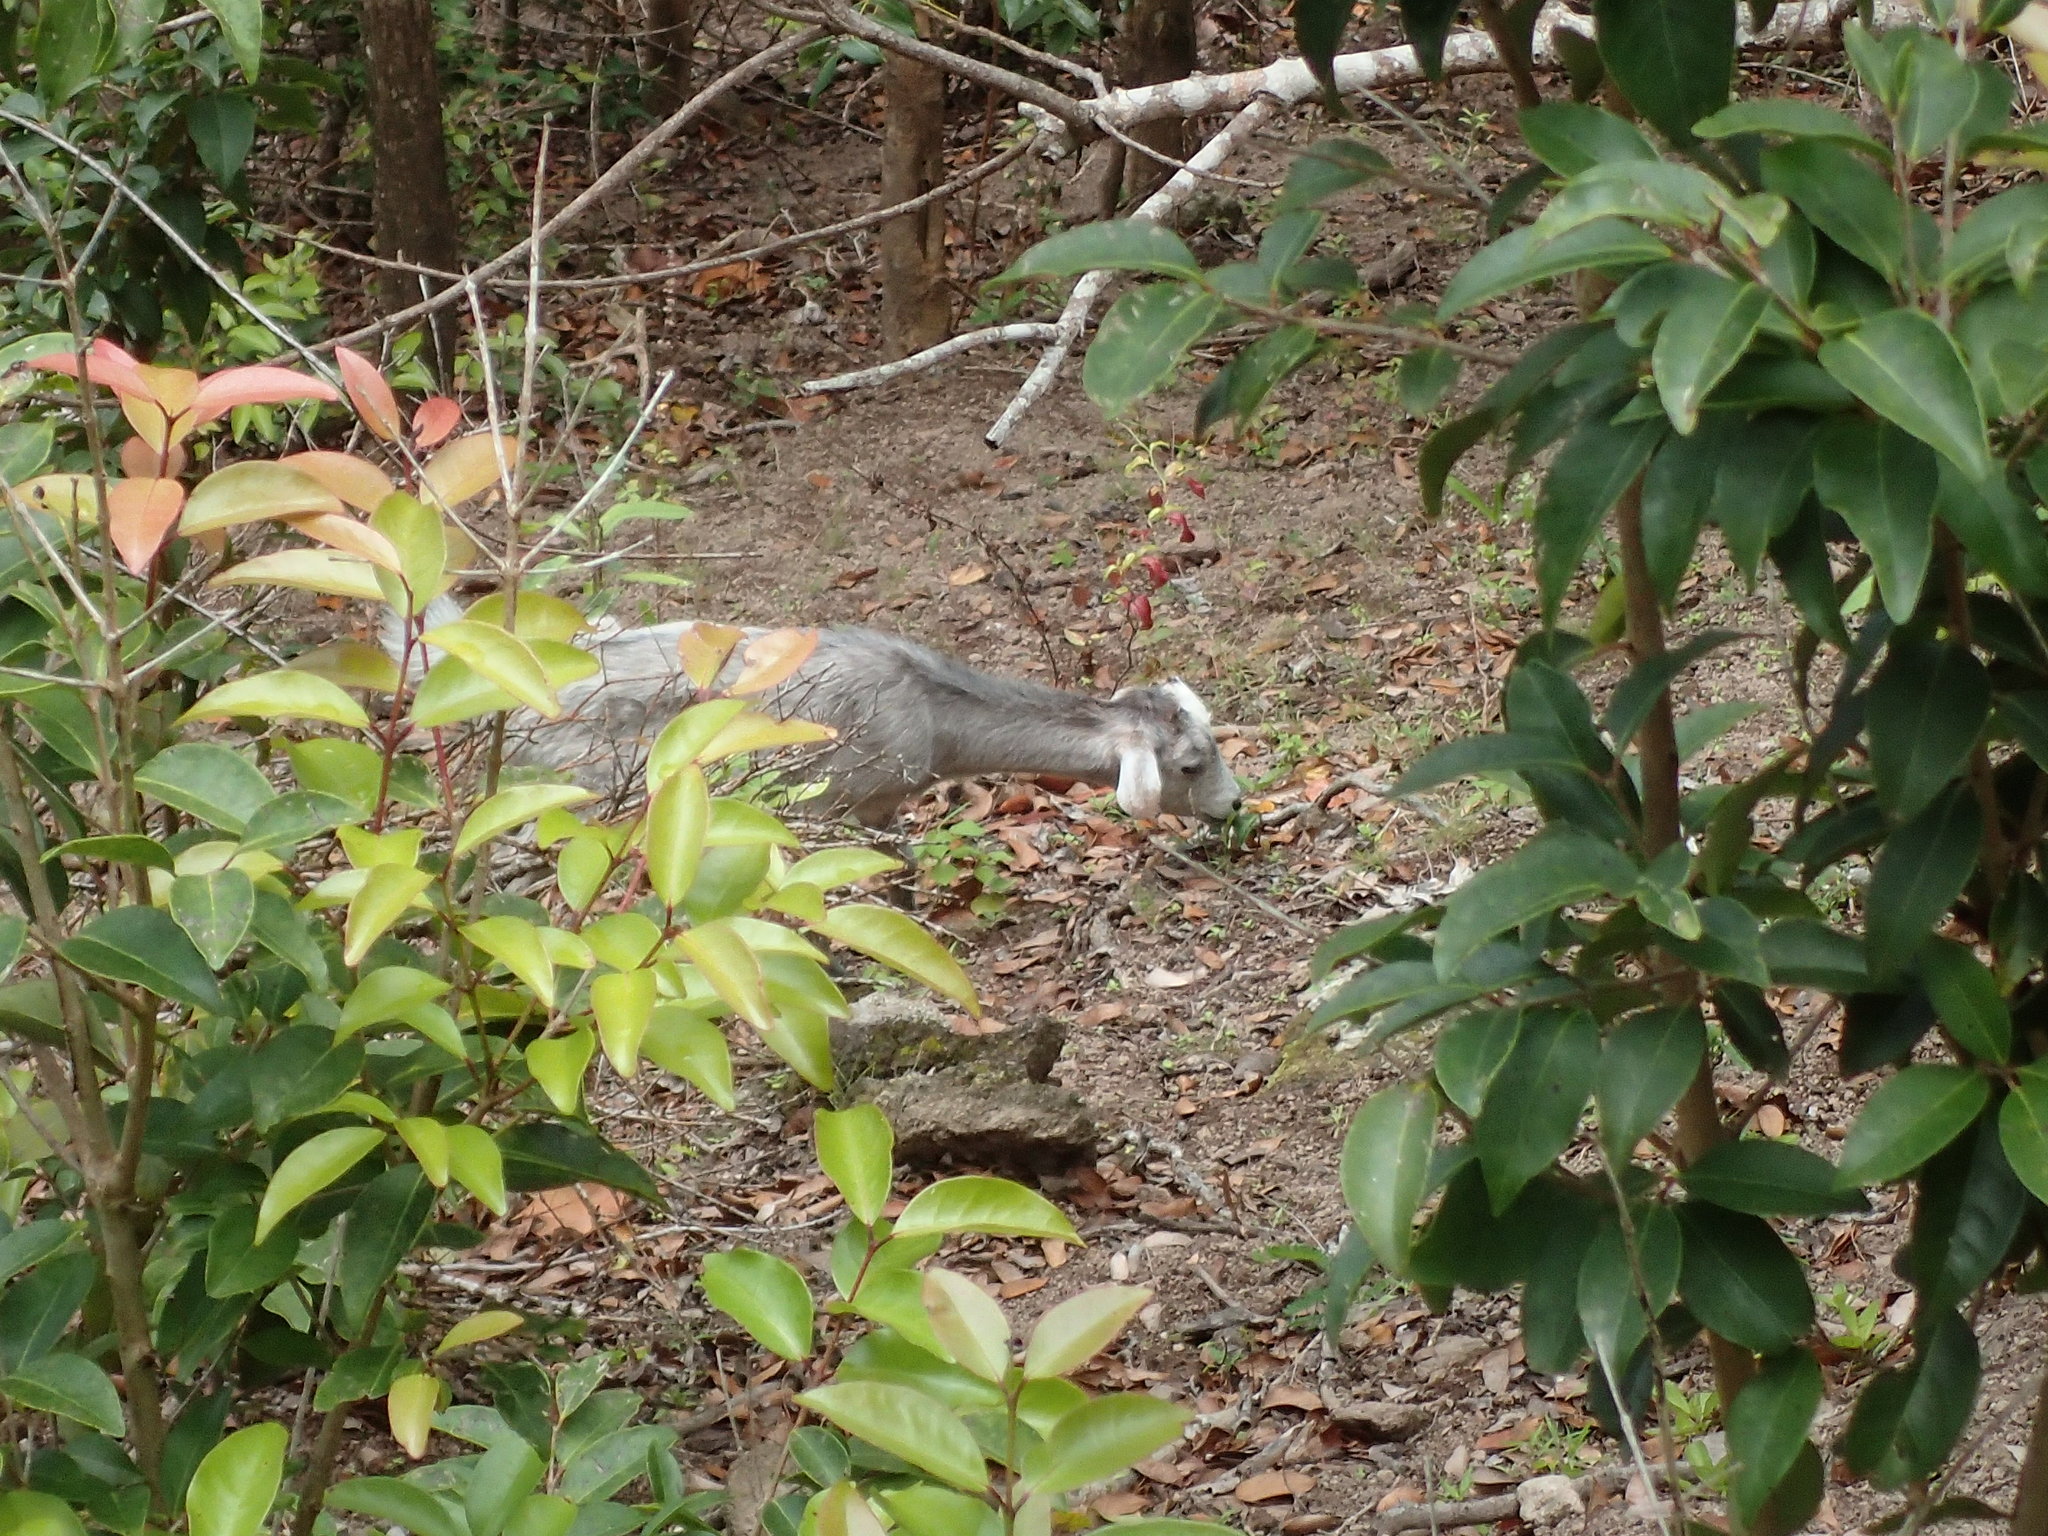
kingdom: Animalia
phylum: Chordata
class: Mammalia
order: Artiodactyla
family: Bovidae
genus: Capra
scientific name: Capra hircus
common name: Domestic goat
